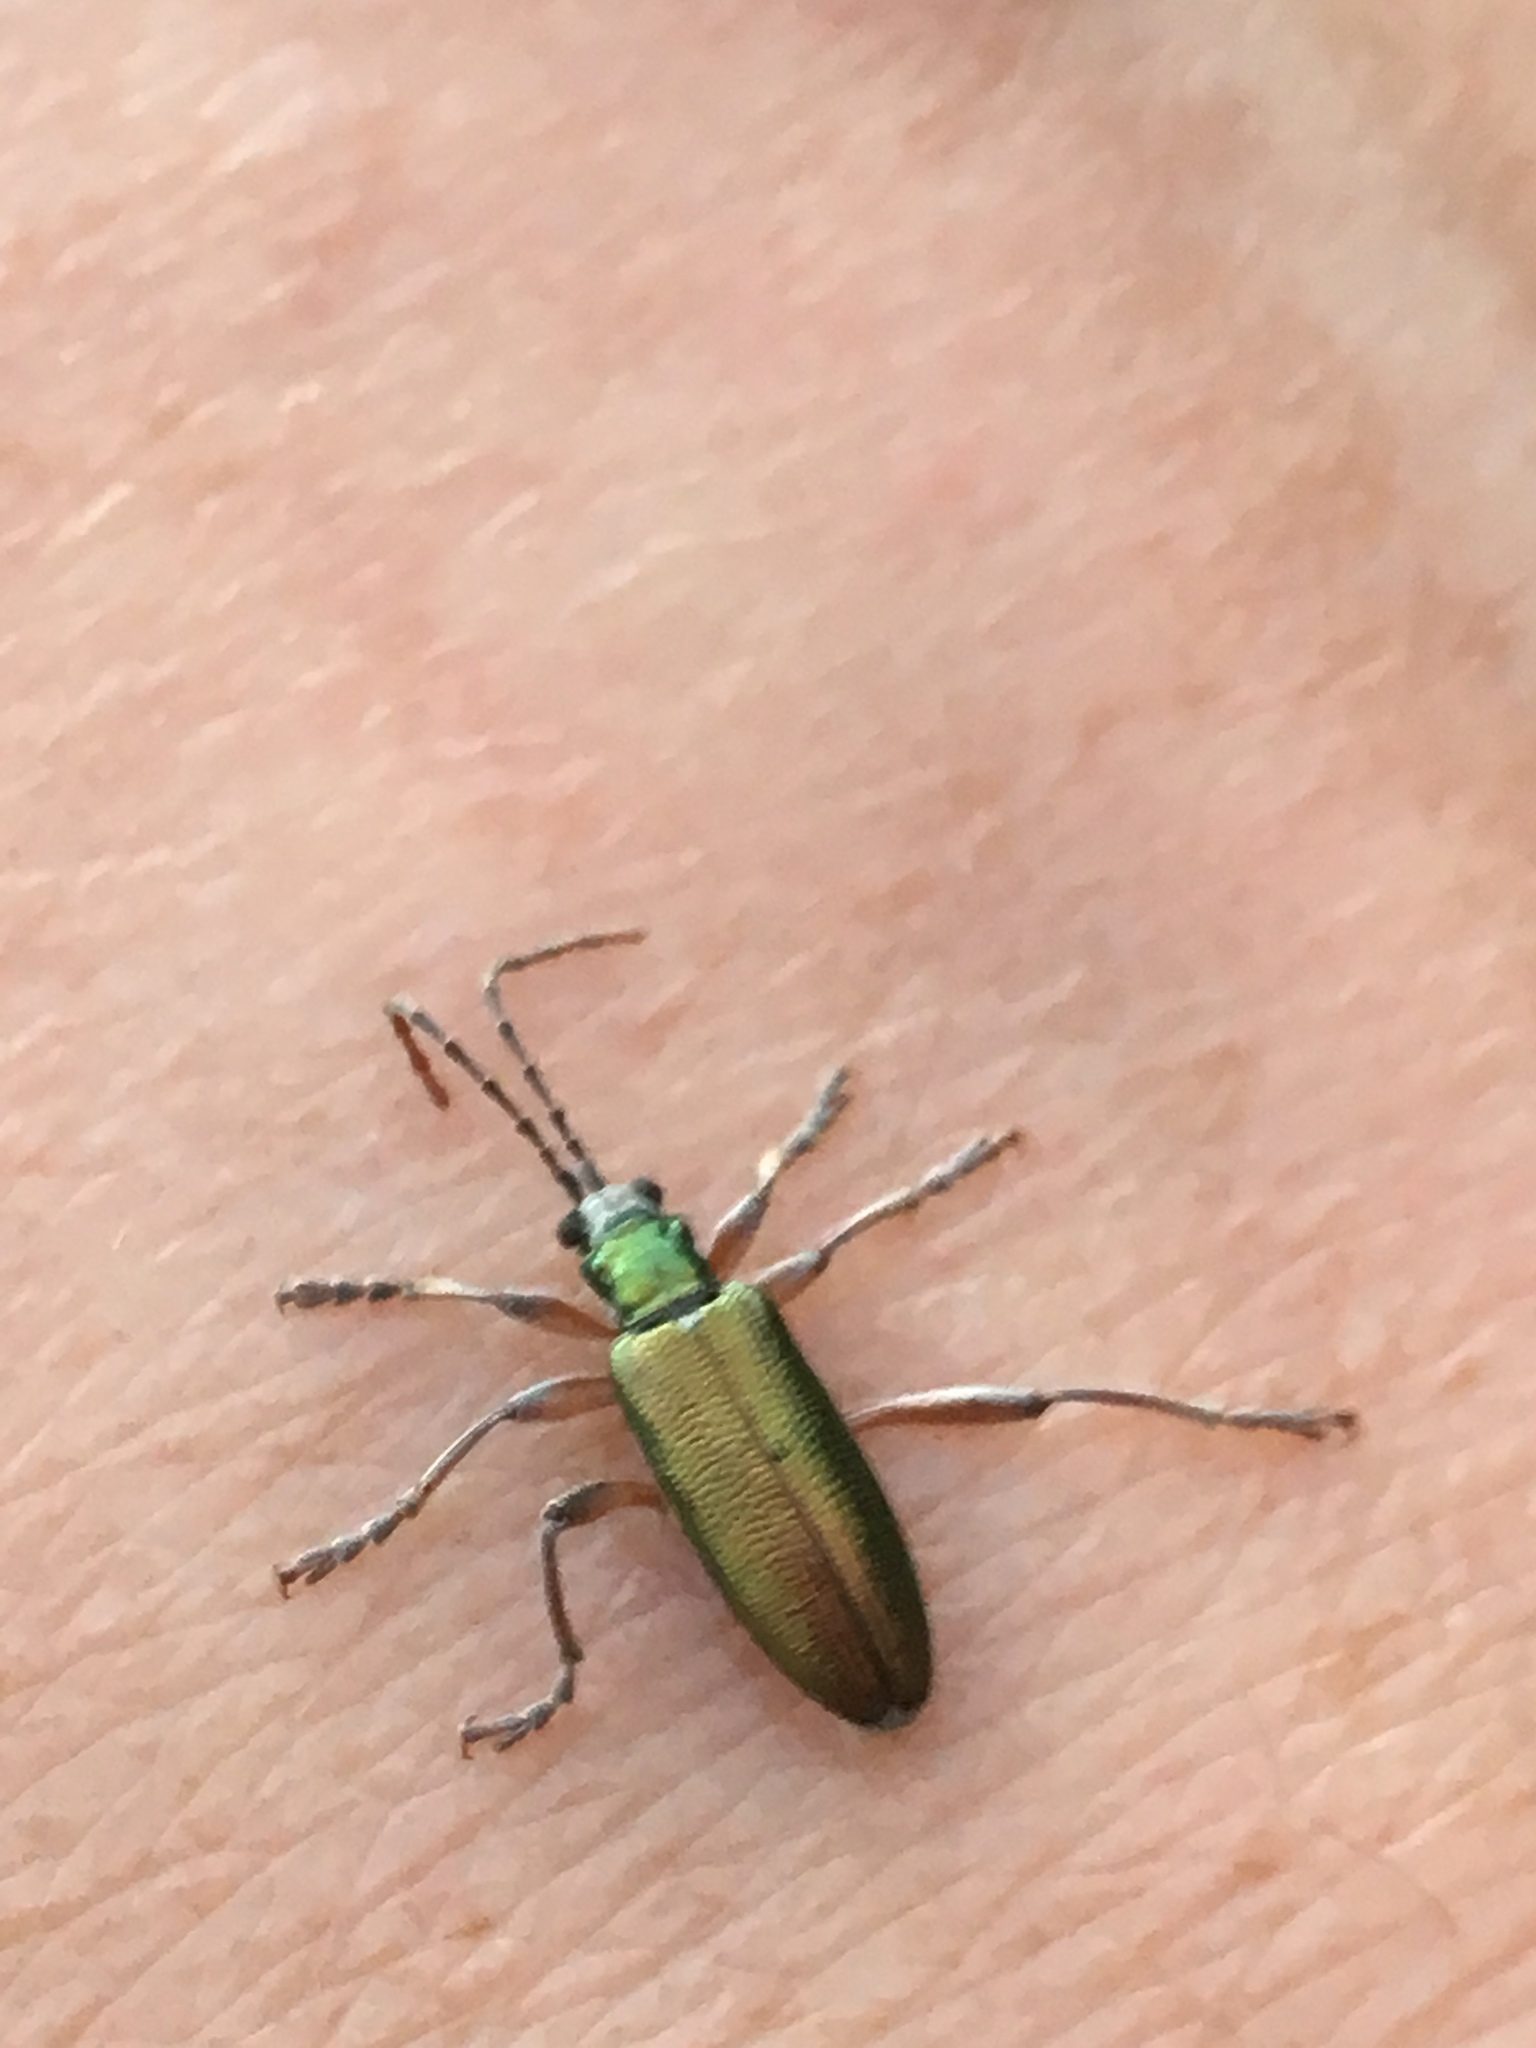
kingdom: Animalia
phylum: Arthropoda
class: Insecta
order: Coleoptera
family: Chrysomelidae
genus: Donacia
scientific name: Donacia clavipes
